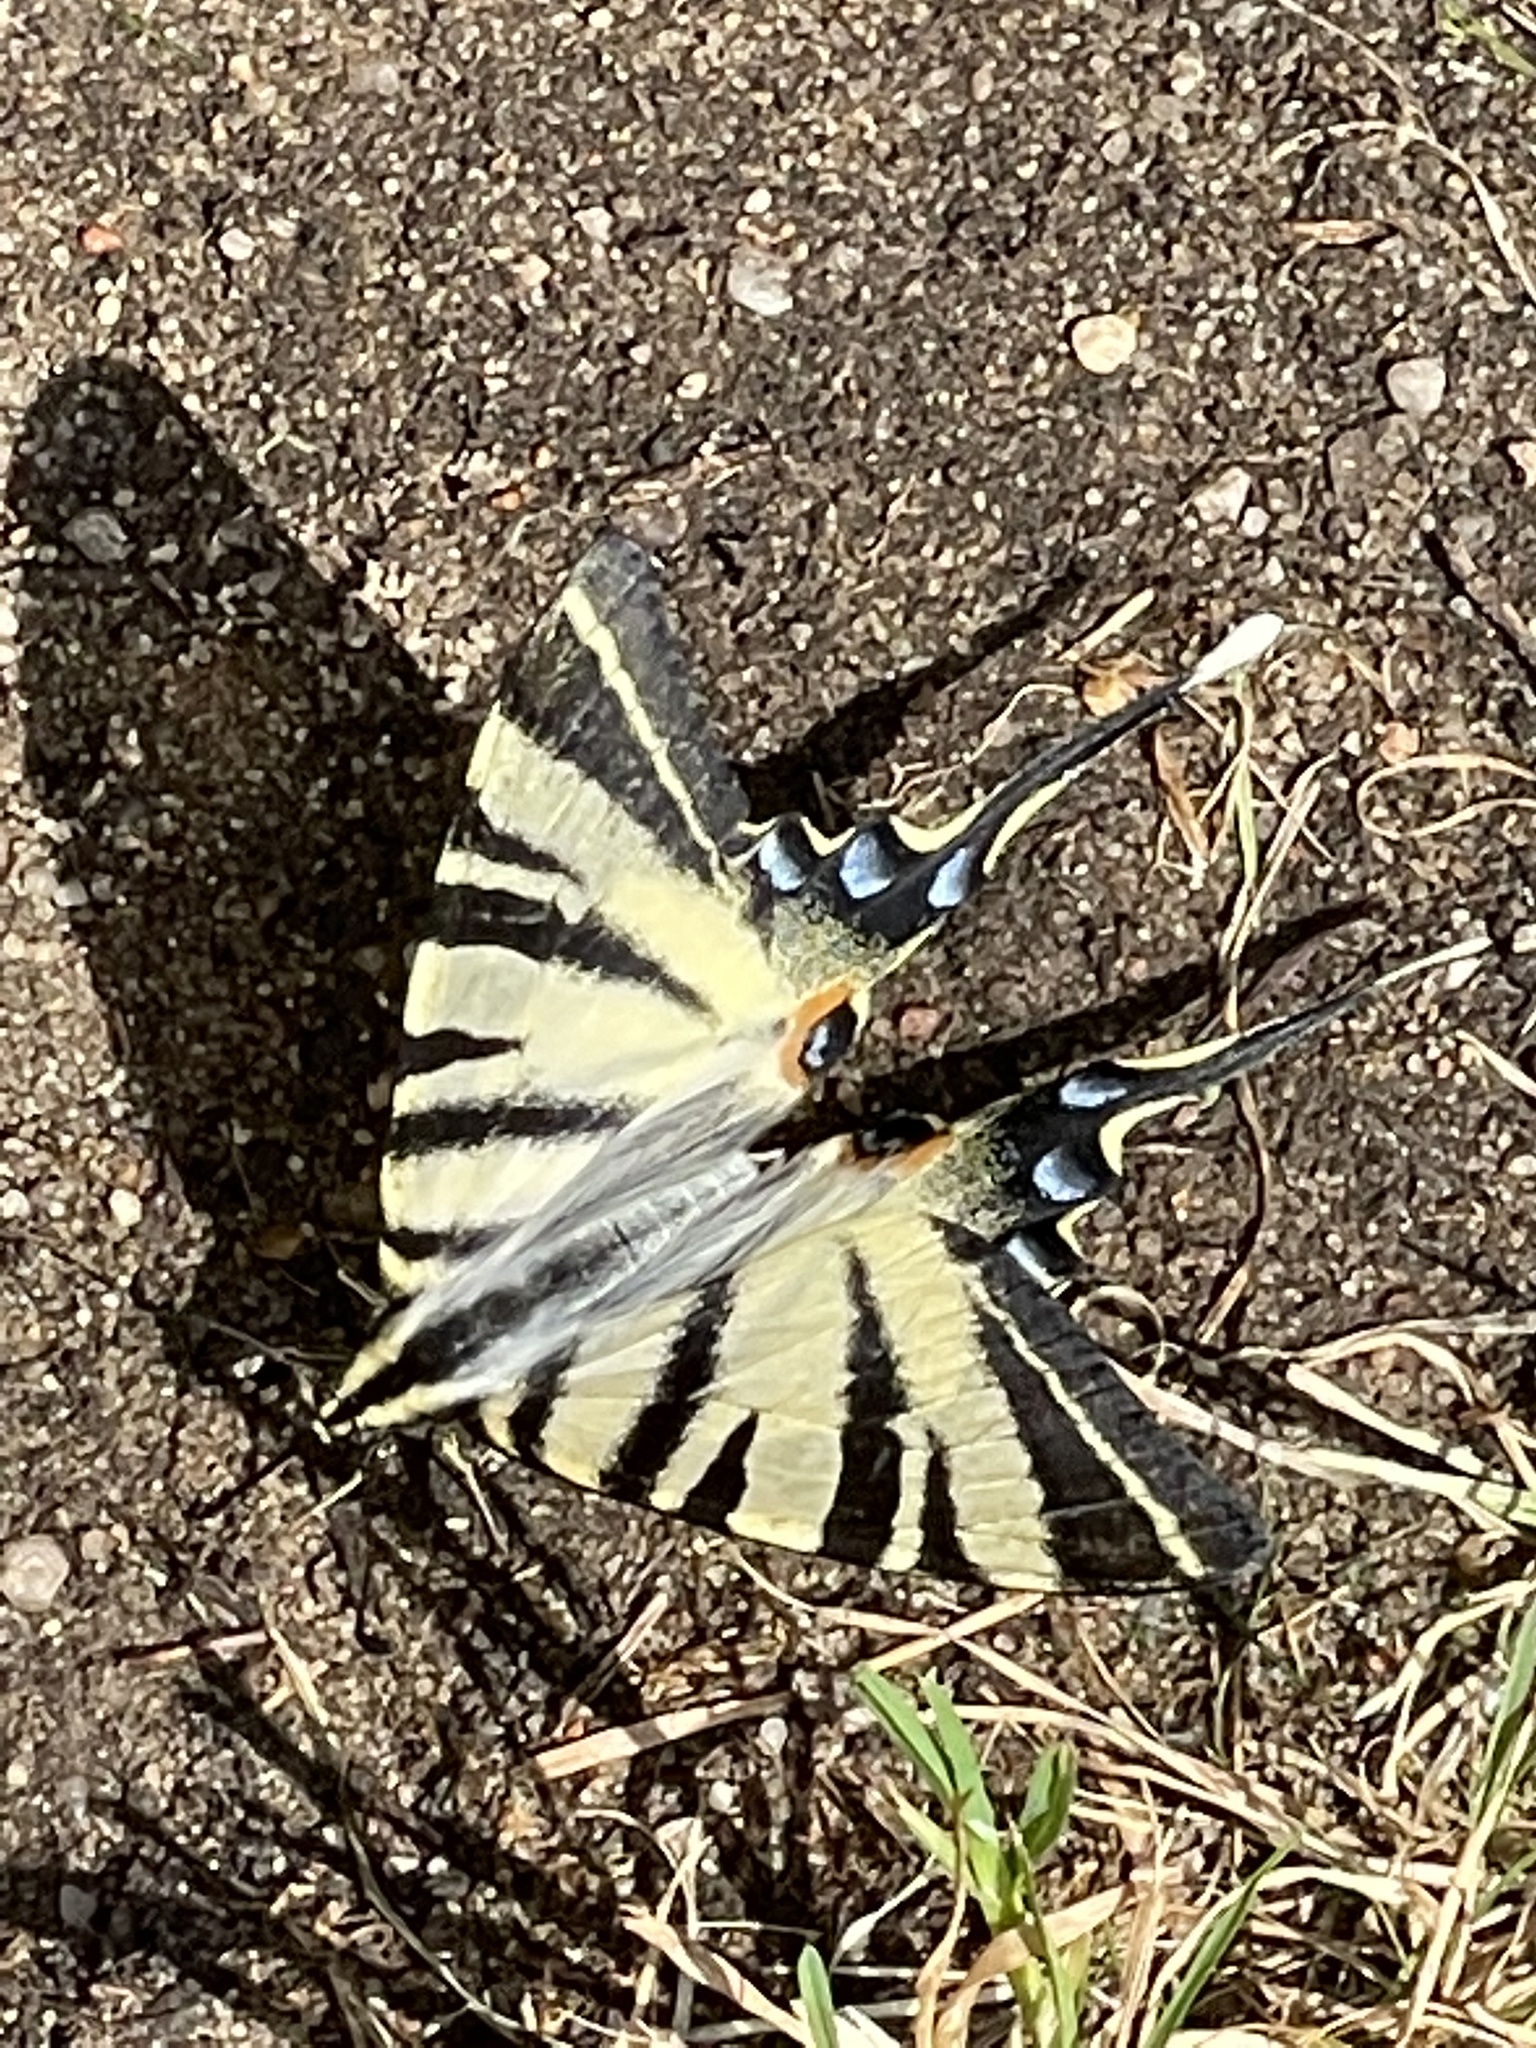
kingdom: Animalia
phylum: Arthropoda
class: Insecta
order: Lepidoptera
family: Papilionidae
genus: Iphiclides
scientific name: Iphiclides podalirius
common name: Scarce swallowtail
